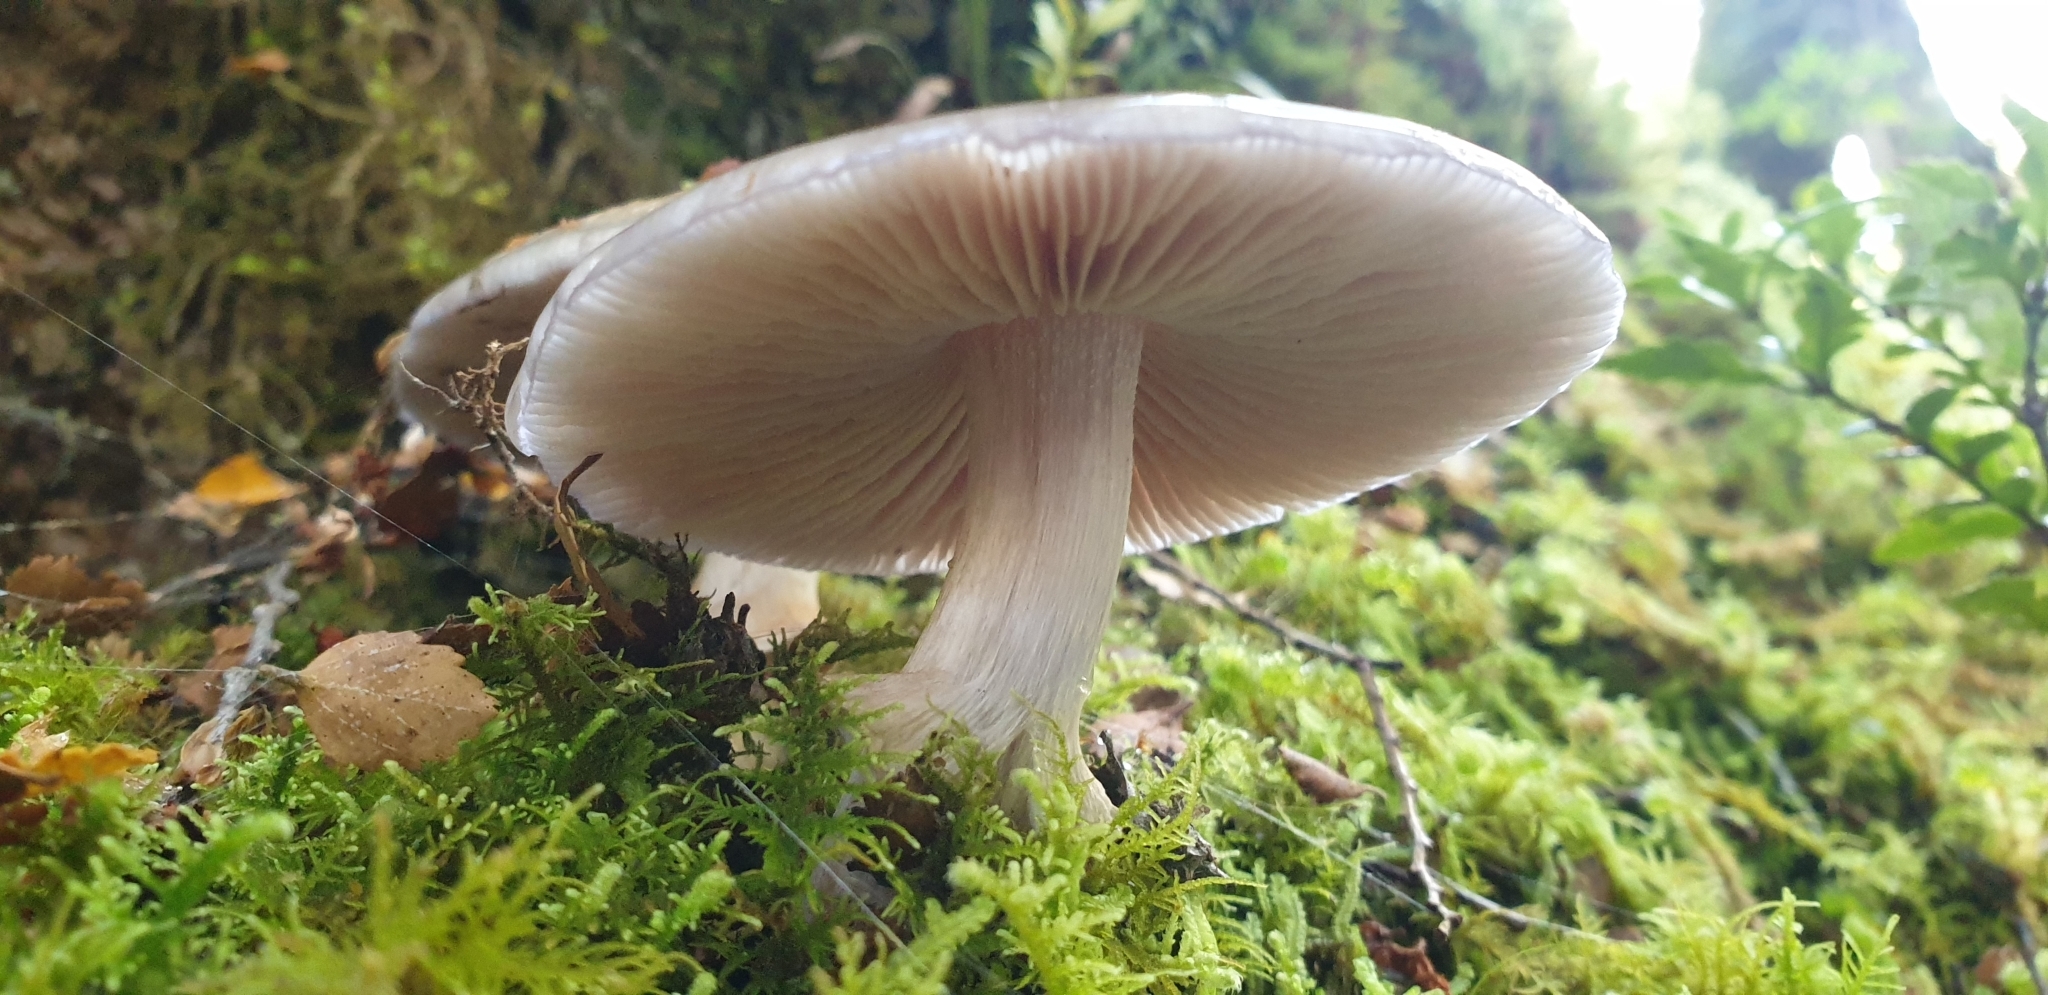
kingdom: Fungi
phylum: Basidiomycota
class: Agaricomycetes
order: Agaricales
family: Cortinariaceae
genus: Cortinarius
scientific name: Cortinarius achrous
